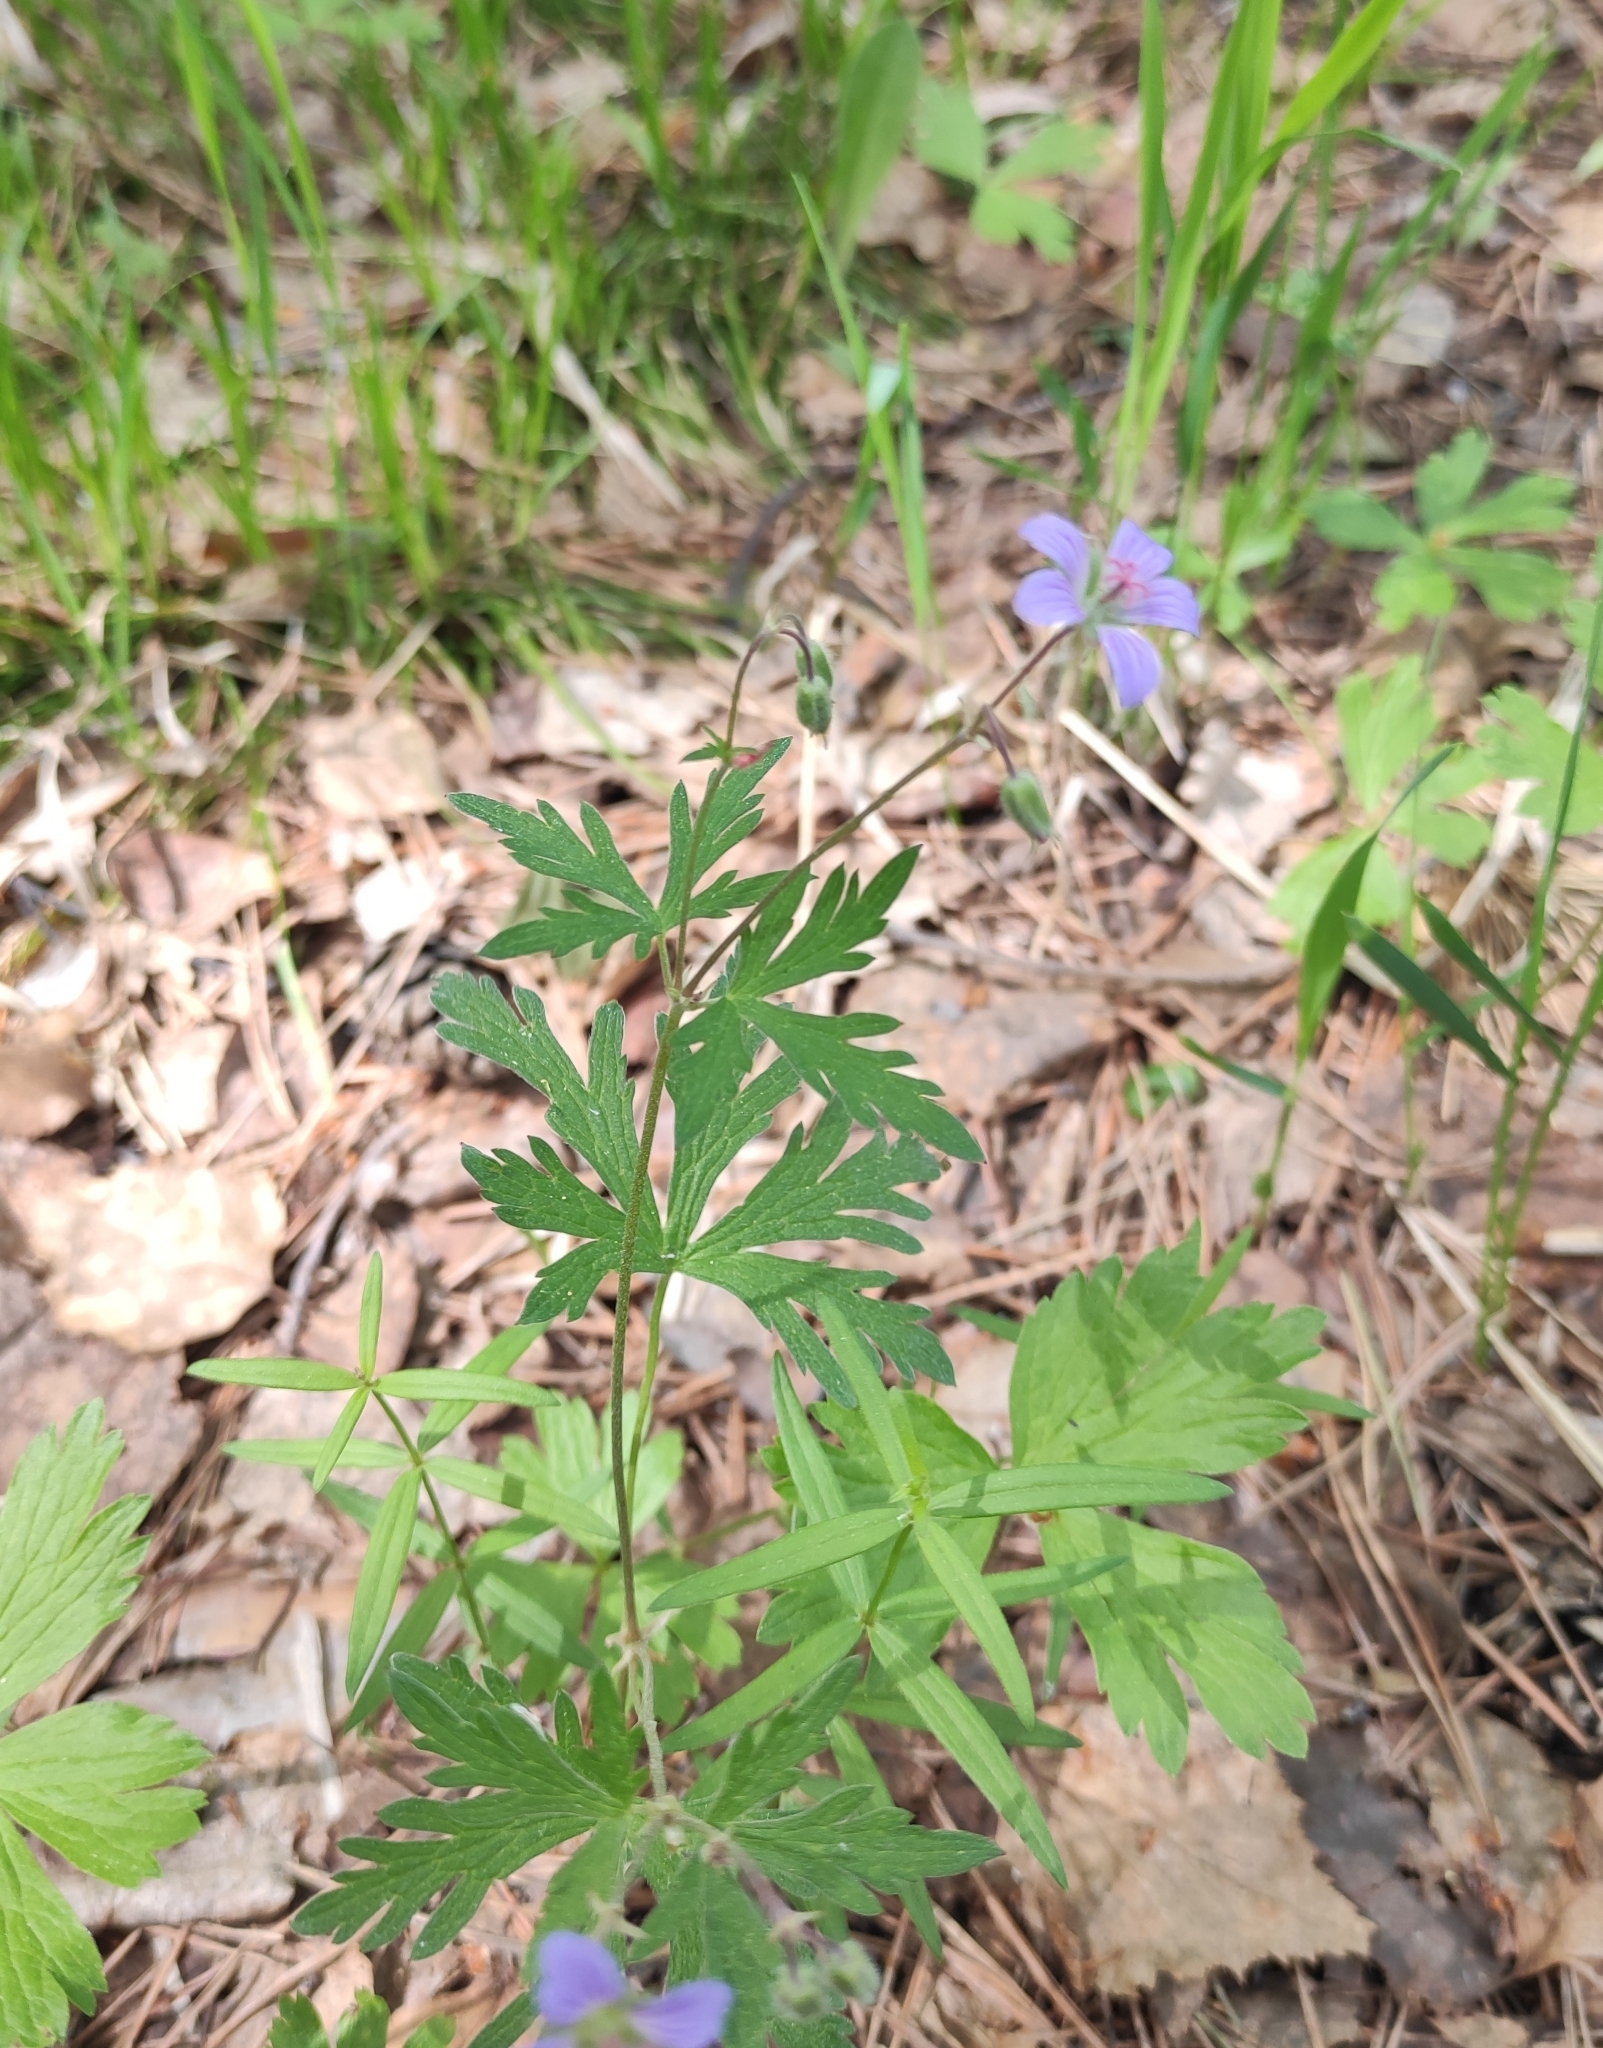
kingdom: Plantae
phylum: Tracheophyta
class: Magnoliopsida
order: Geraniales
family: Geraniaceae
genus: Geranium
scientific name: Geranium pseudosibiricum
